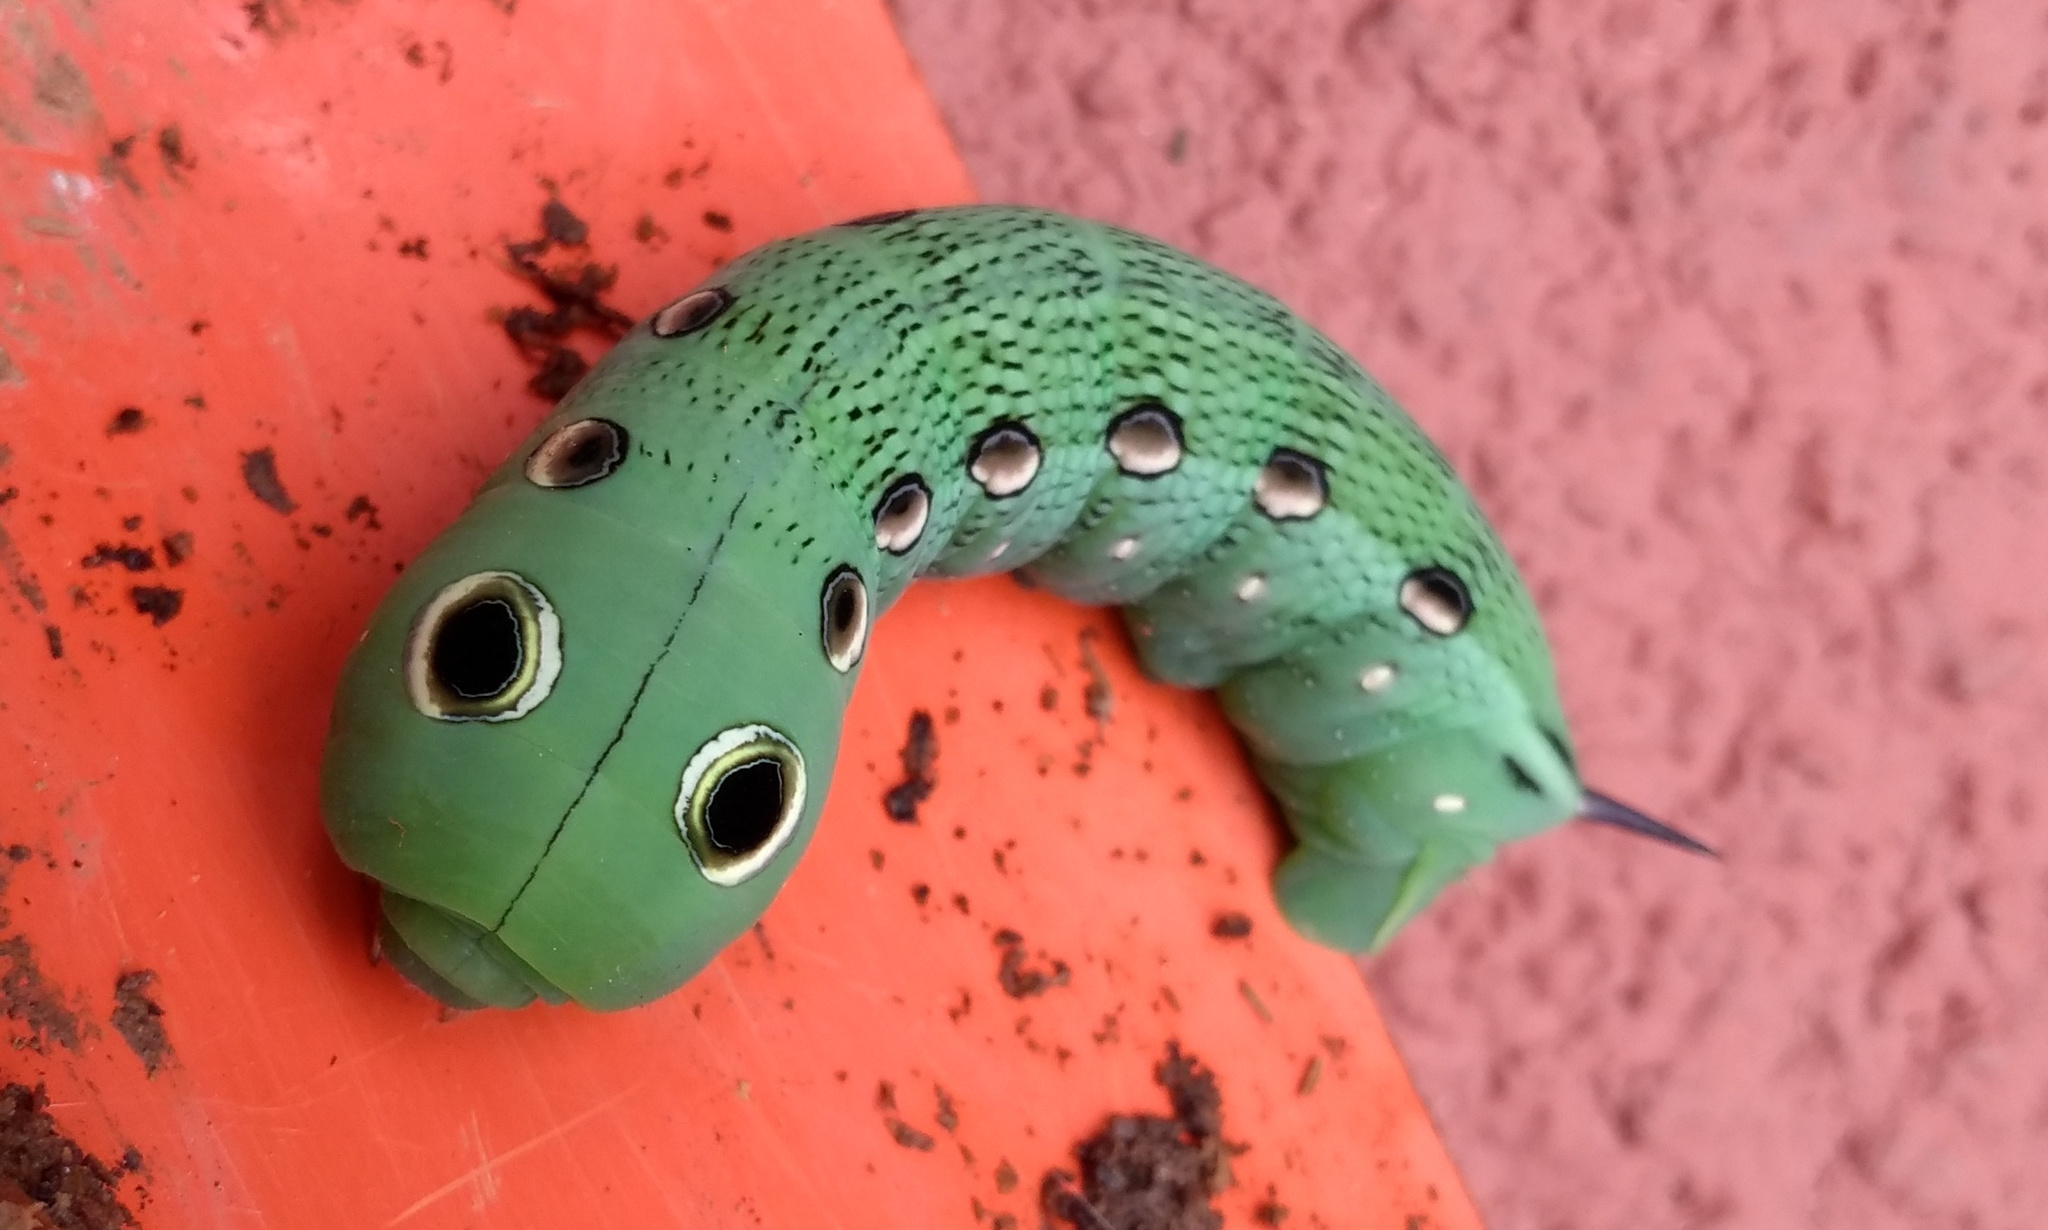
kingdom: Animalia
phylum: Arthropoda
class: Insecta
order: Lepidoptera
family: Sphingidae
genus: Xylophanes
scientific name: Xylophanes tersa
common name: Tersa sphinx
